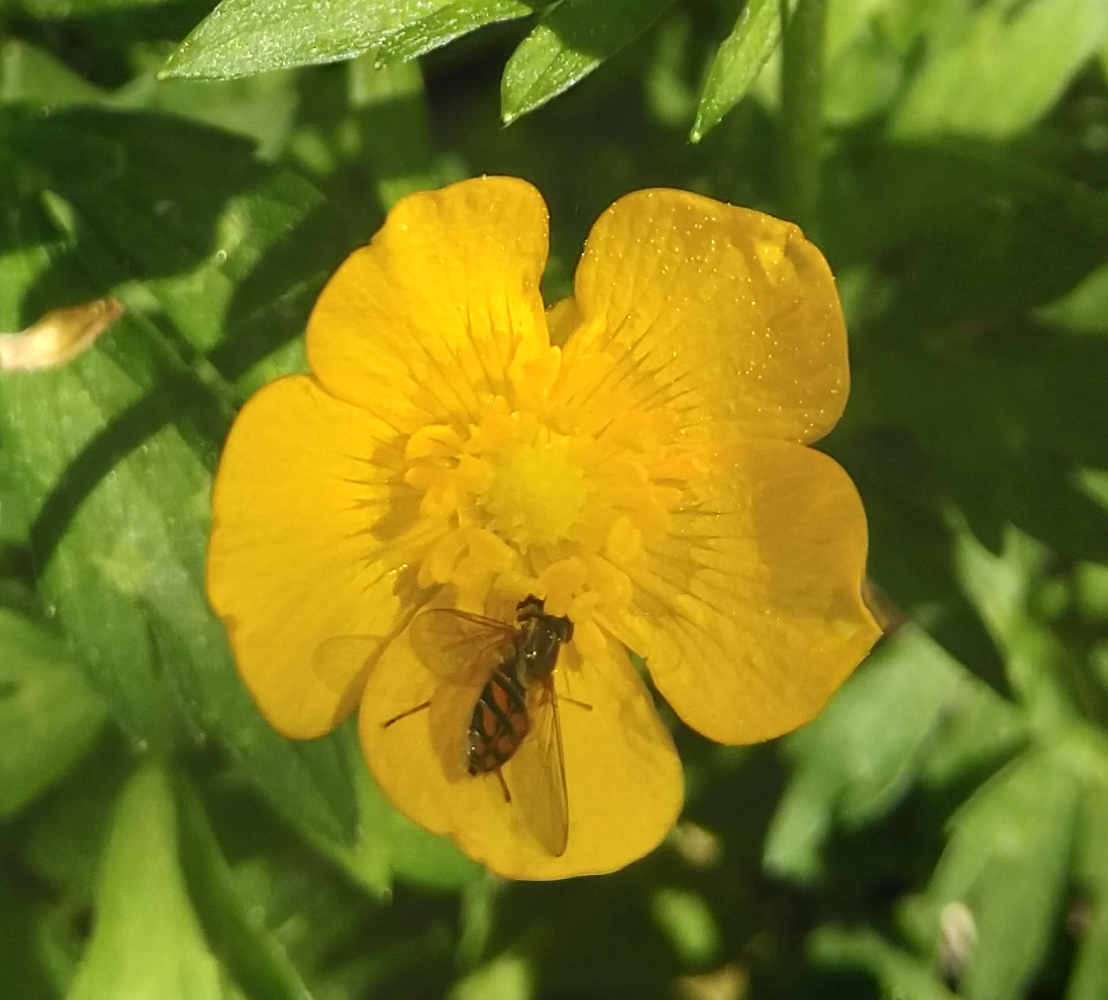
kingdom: Animalia
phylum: Arthropoda
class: Insecta
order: Diptera
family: Syrphidae
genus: Toxomerus
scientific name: Toxomerus marginatus
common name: Syrphid fly
